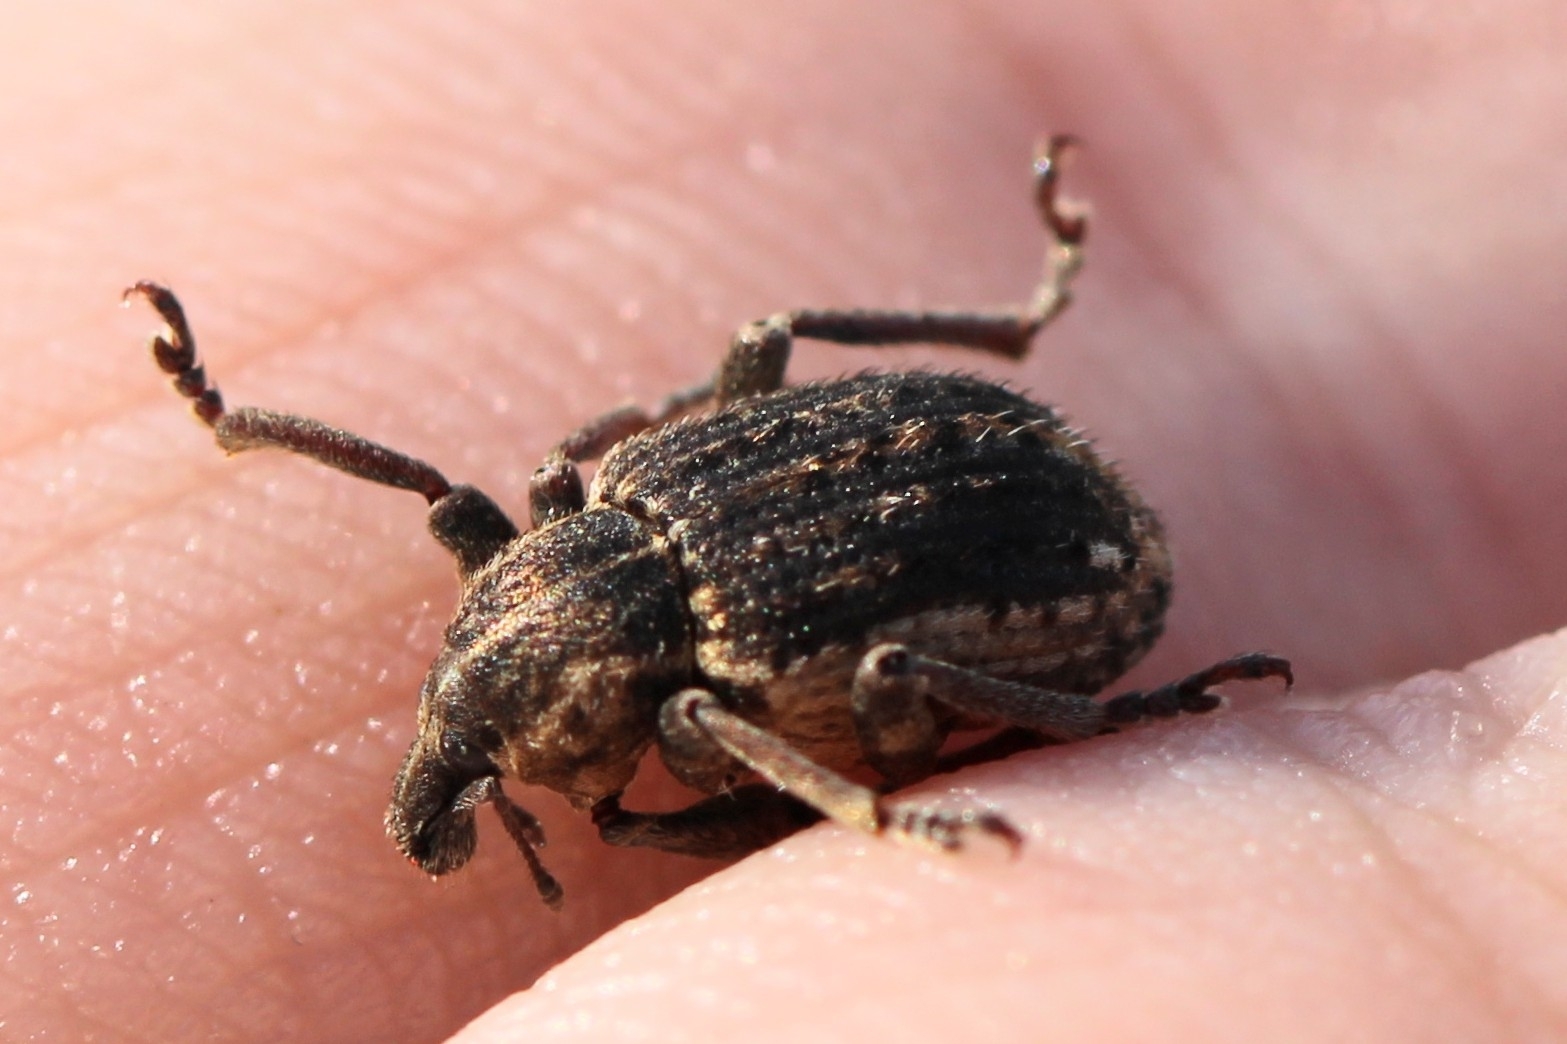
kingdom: Animalia
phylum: Arthropoda
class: Insecta
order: Coleoptera
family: Curculionidae
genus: Brachypera
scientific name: Brachypera zoilus
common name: Clover leaf weevil
